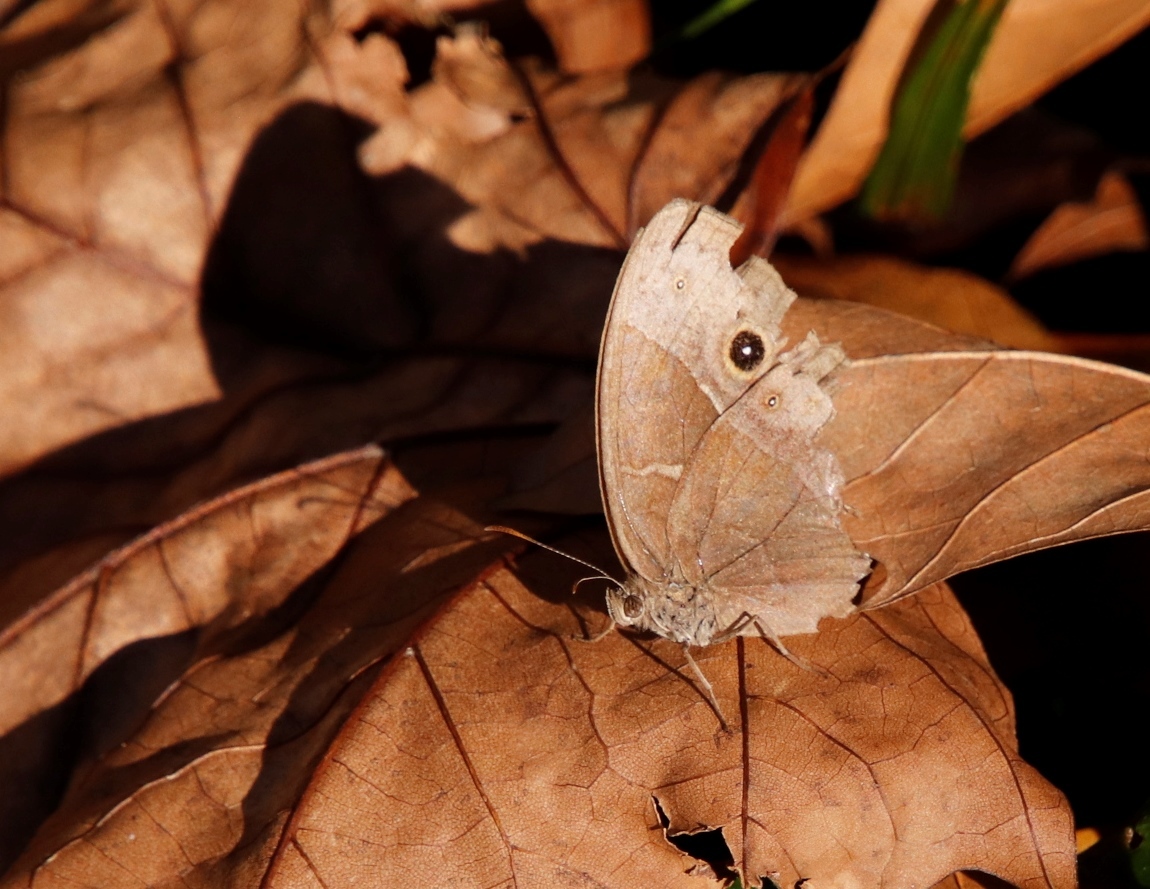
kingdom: Animalia
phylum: Arthropoda
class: Insecta
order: Lepidoptera
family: Nymphalidae
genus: Mycalesis
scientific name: Mycalesis rhacotis
